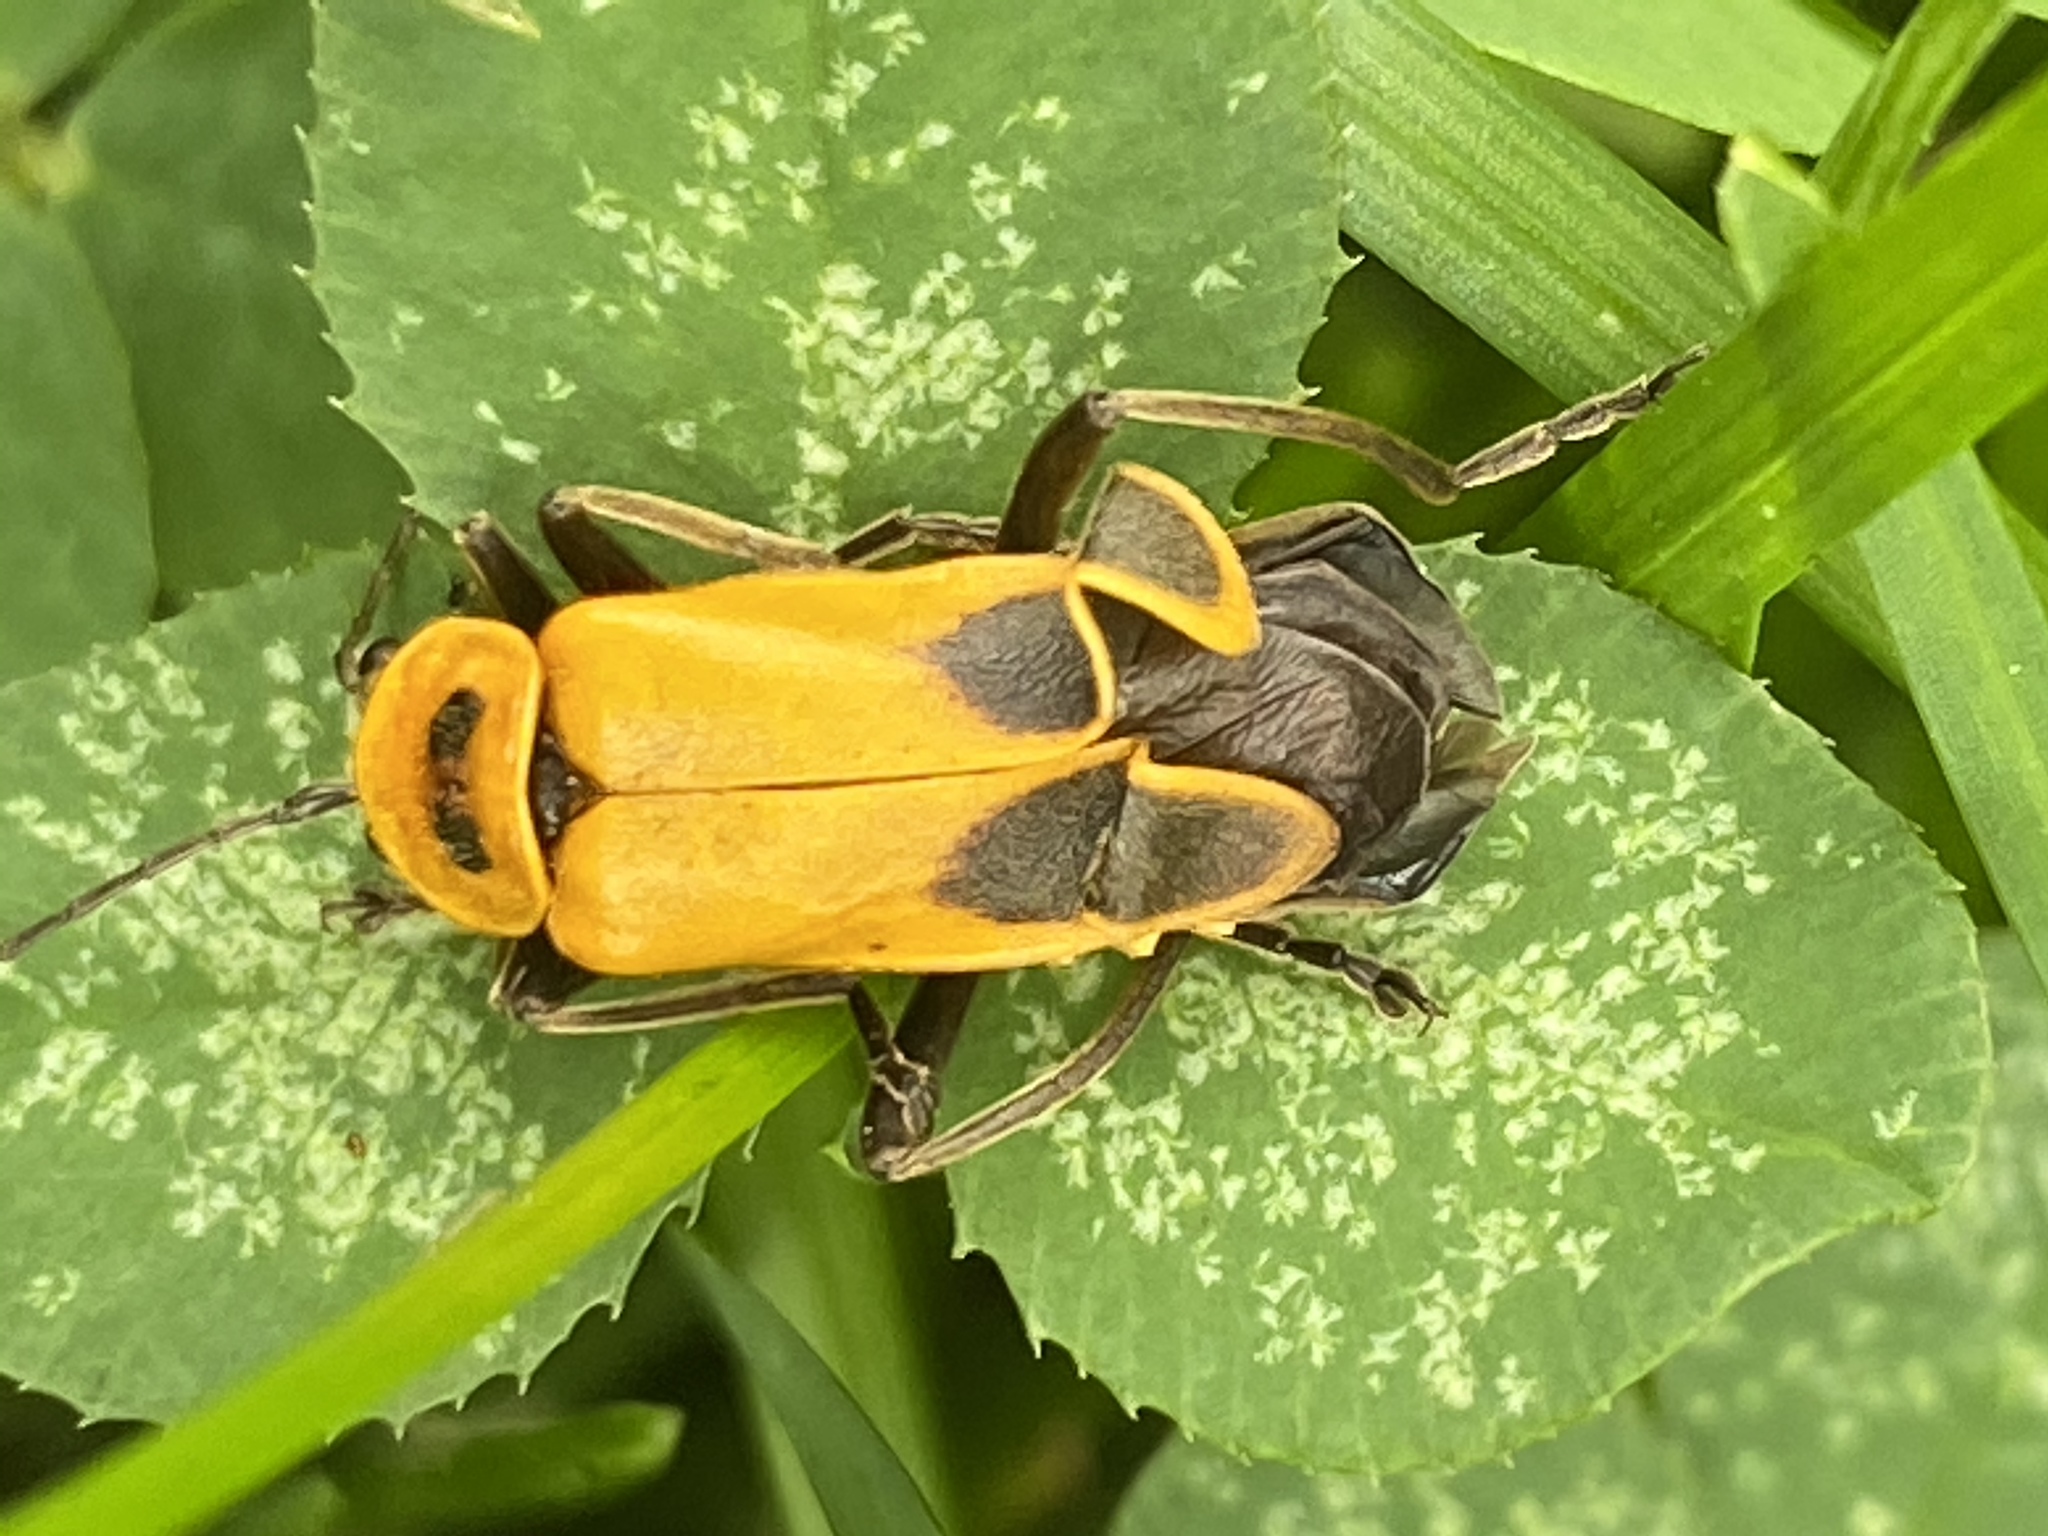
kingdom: Animalia
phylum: Arthropoda
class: Insecta
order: Coleoptera
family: Cantharidae
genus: Chauliognathus
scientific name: Chauliognathus pensylvanicus
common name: Goldenrod soldier beetle
